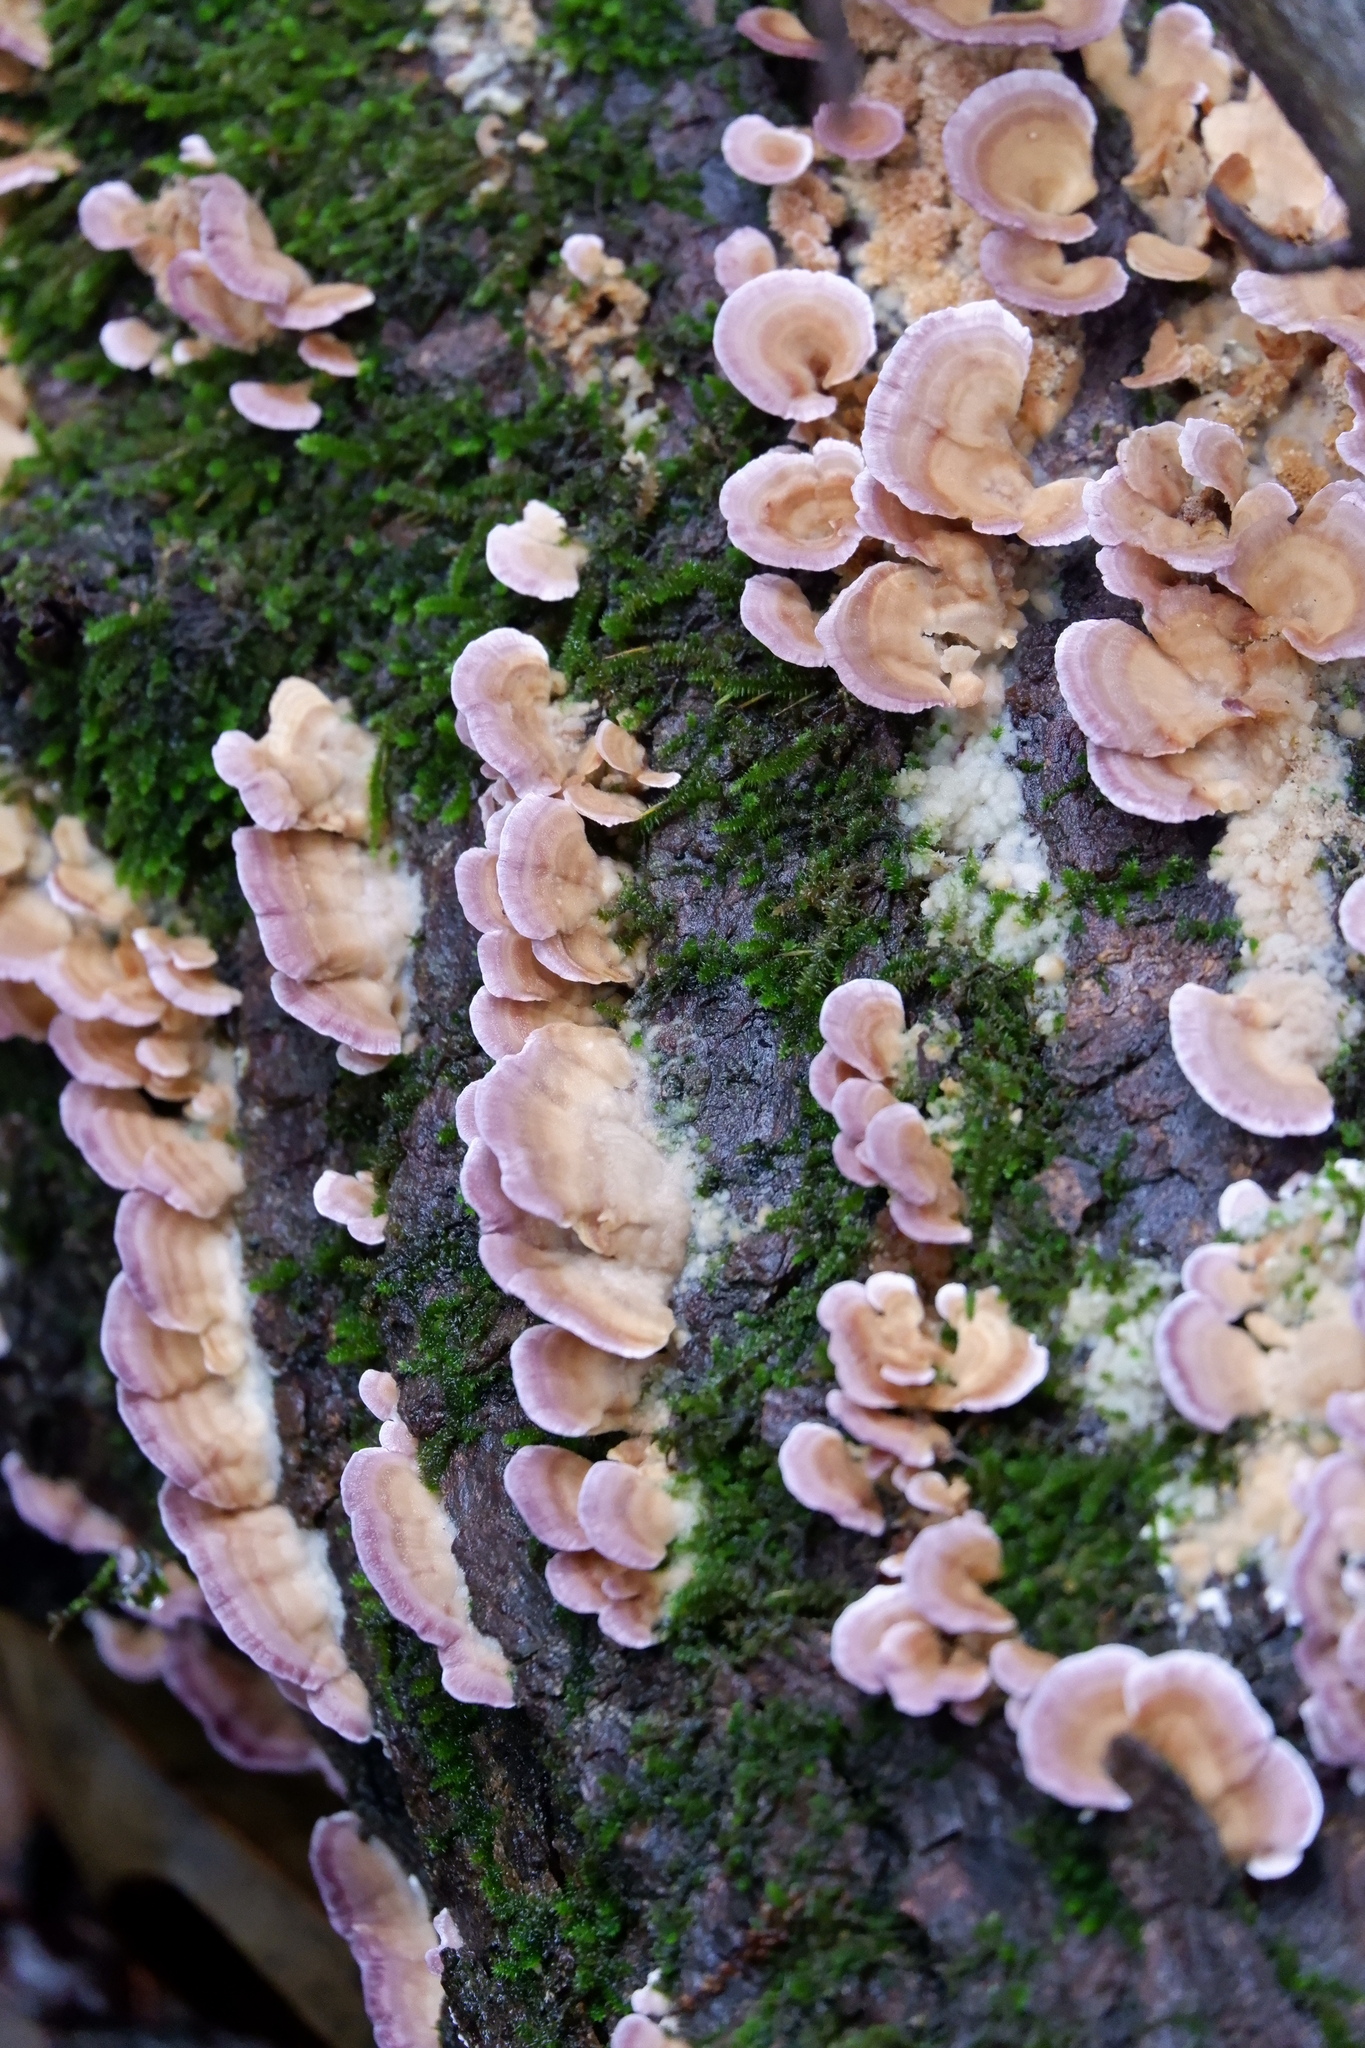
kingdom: Fungi
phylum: Basidiomycota
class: Agaricomycetes
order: Hymenochaetales
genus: Trichaptum
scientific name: Trichaptum biforme
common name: Violet-toothed polypore
